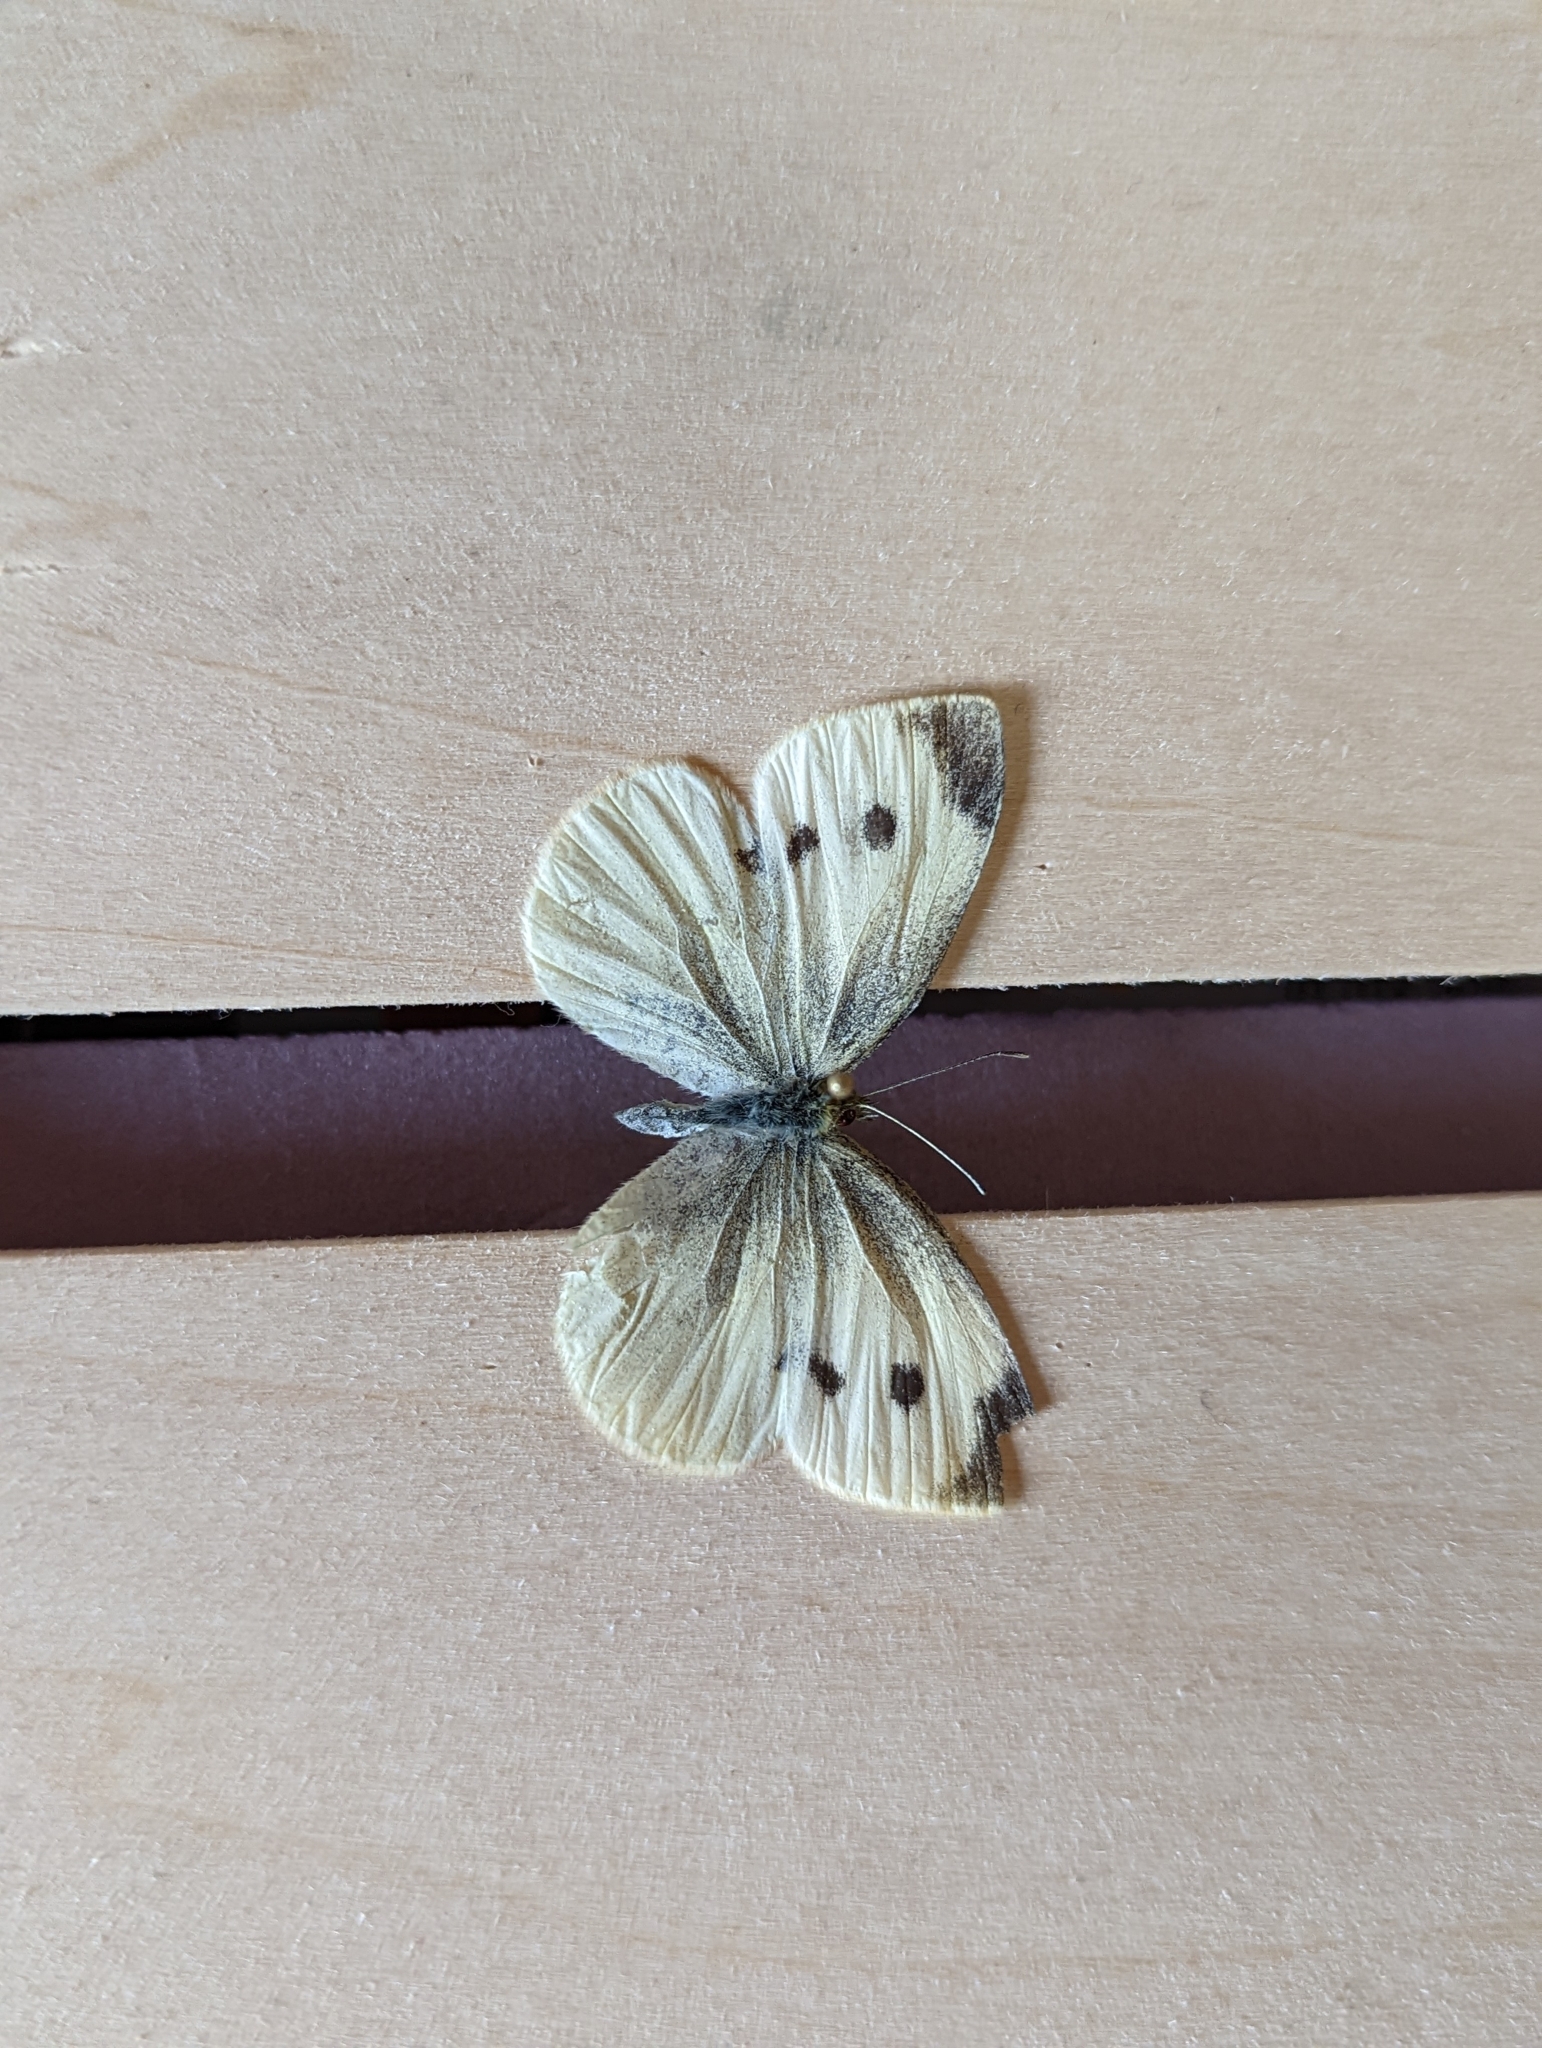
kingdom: Animalia
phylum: Arthropoda
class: Insecta
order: Lepidoptera
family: Pieridae
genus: Pieris
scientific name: Pieris rapae
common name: Small white
